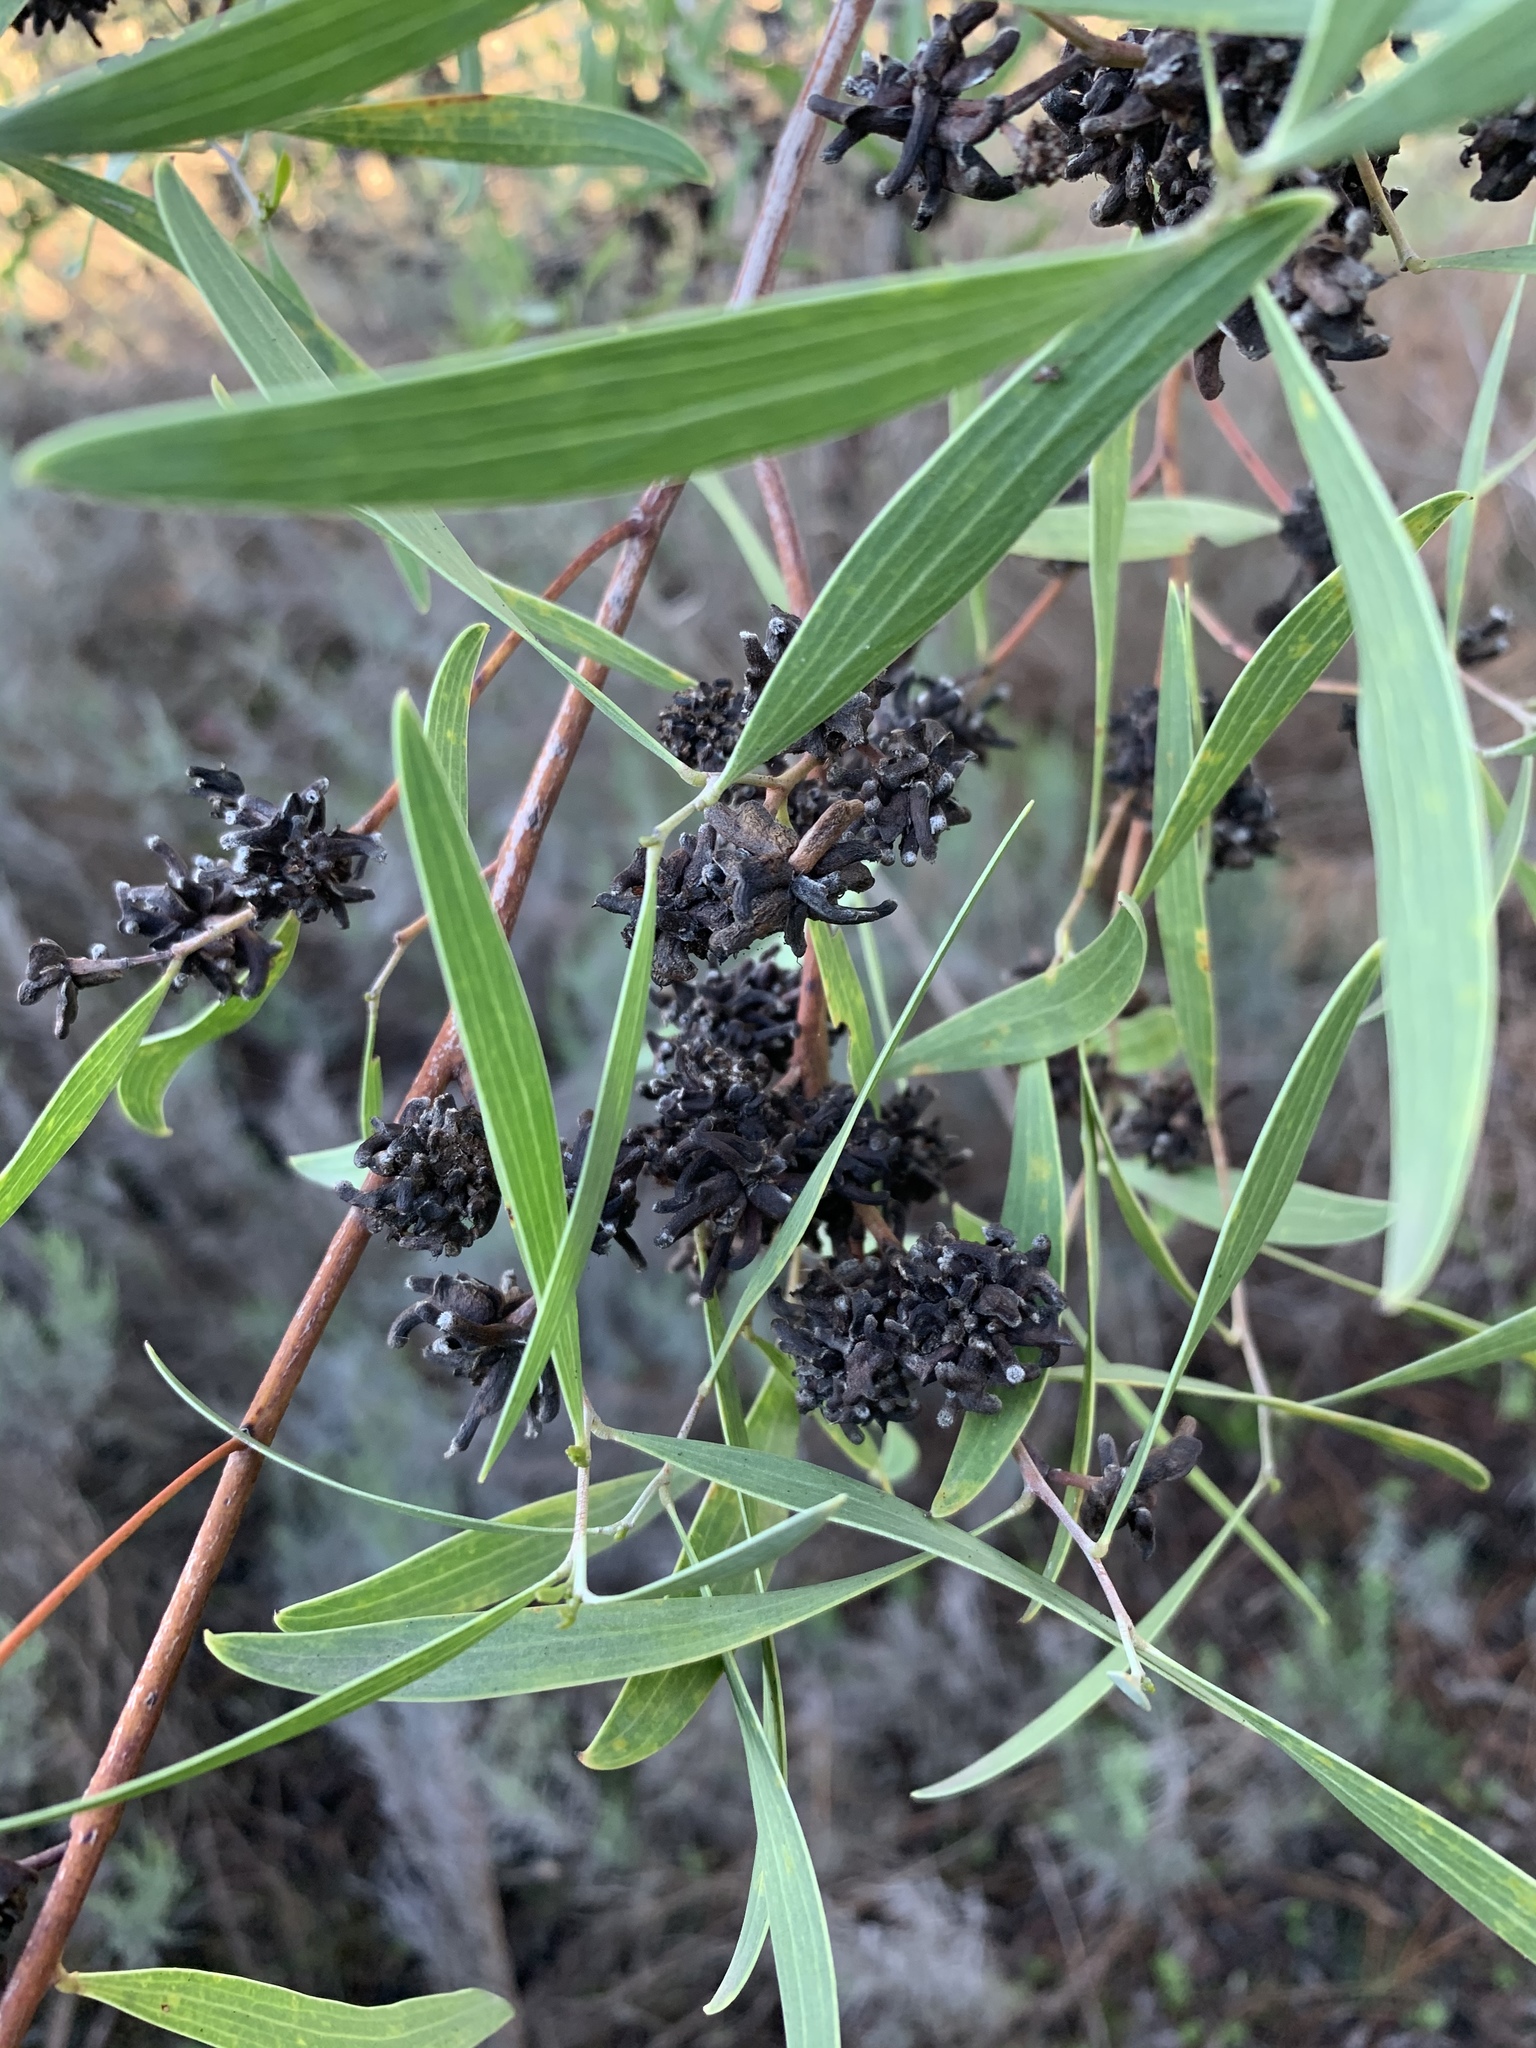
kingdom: Animalia
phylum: Arthropoda
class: Insecta
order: Diptera
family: Cecidomyiidae
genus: Dasineura
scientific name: Dasineura dielsi
